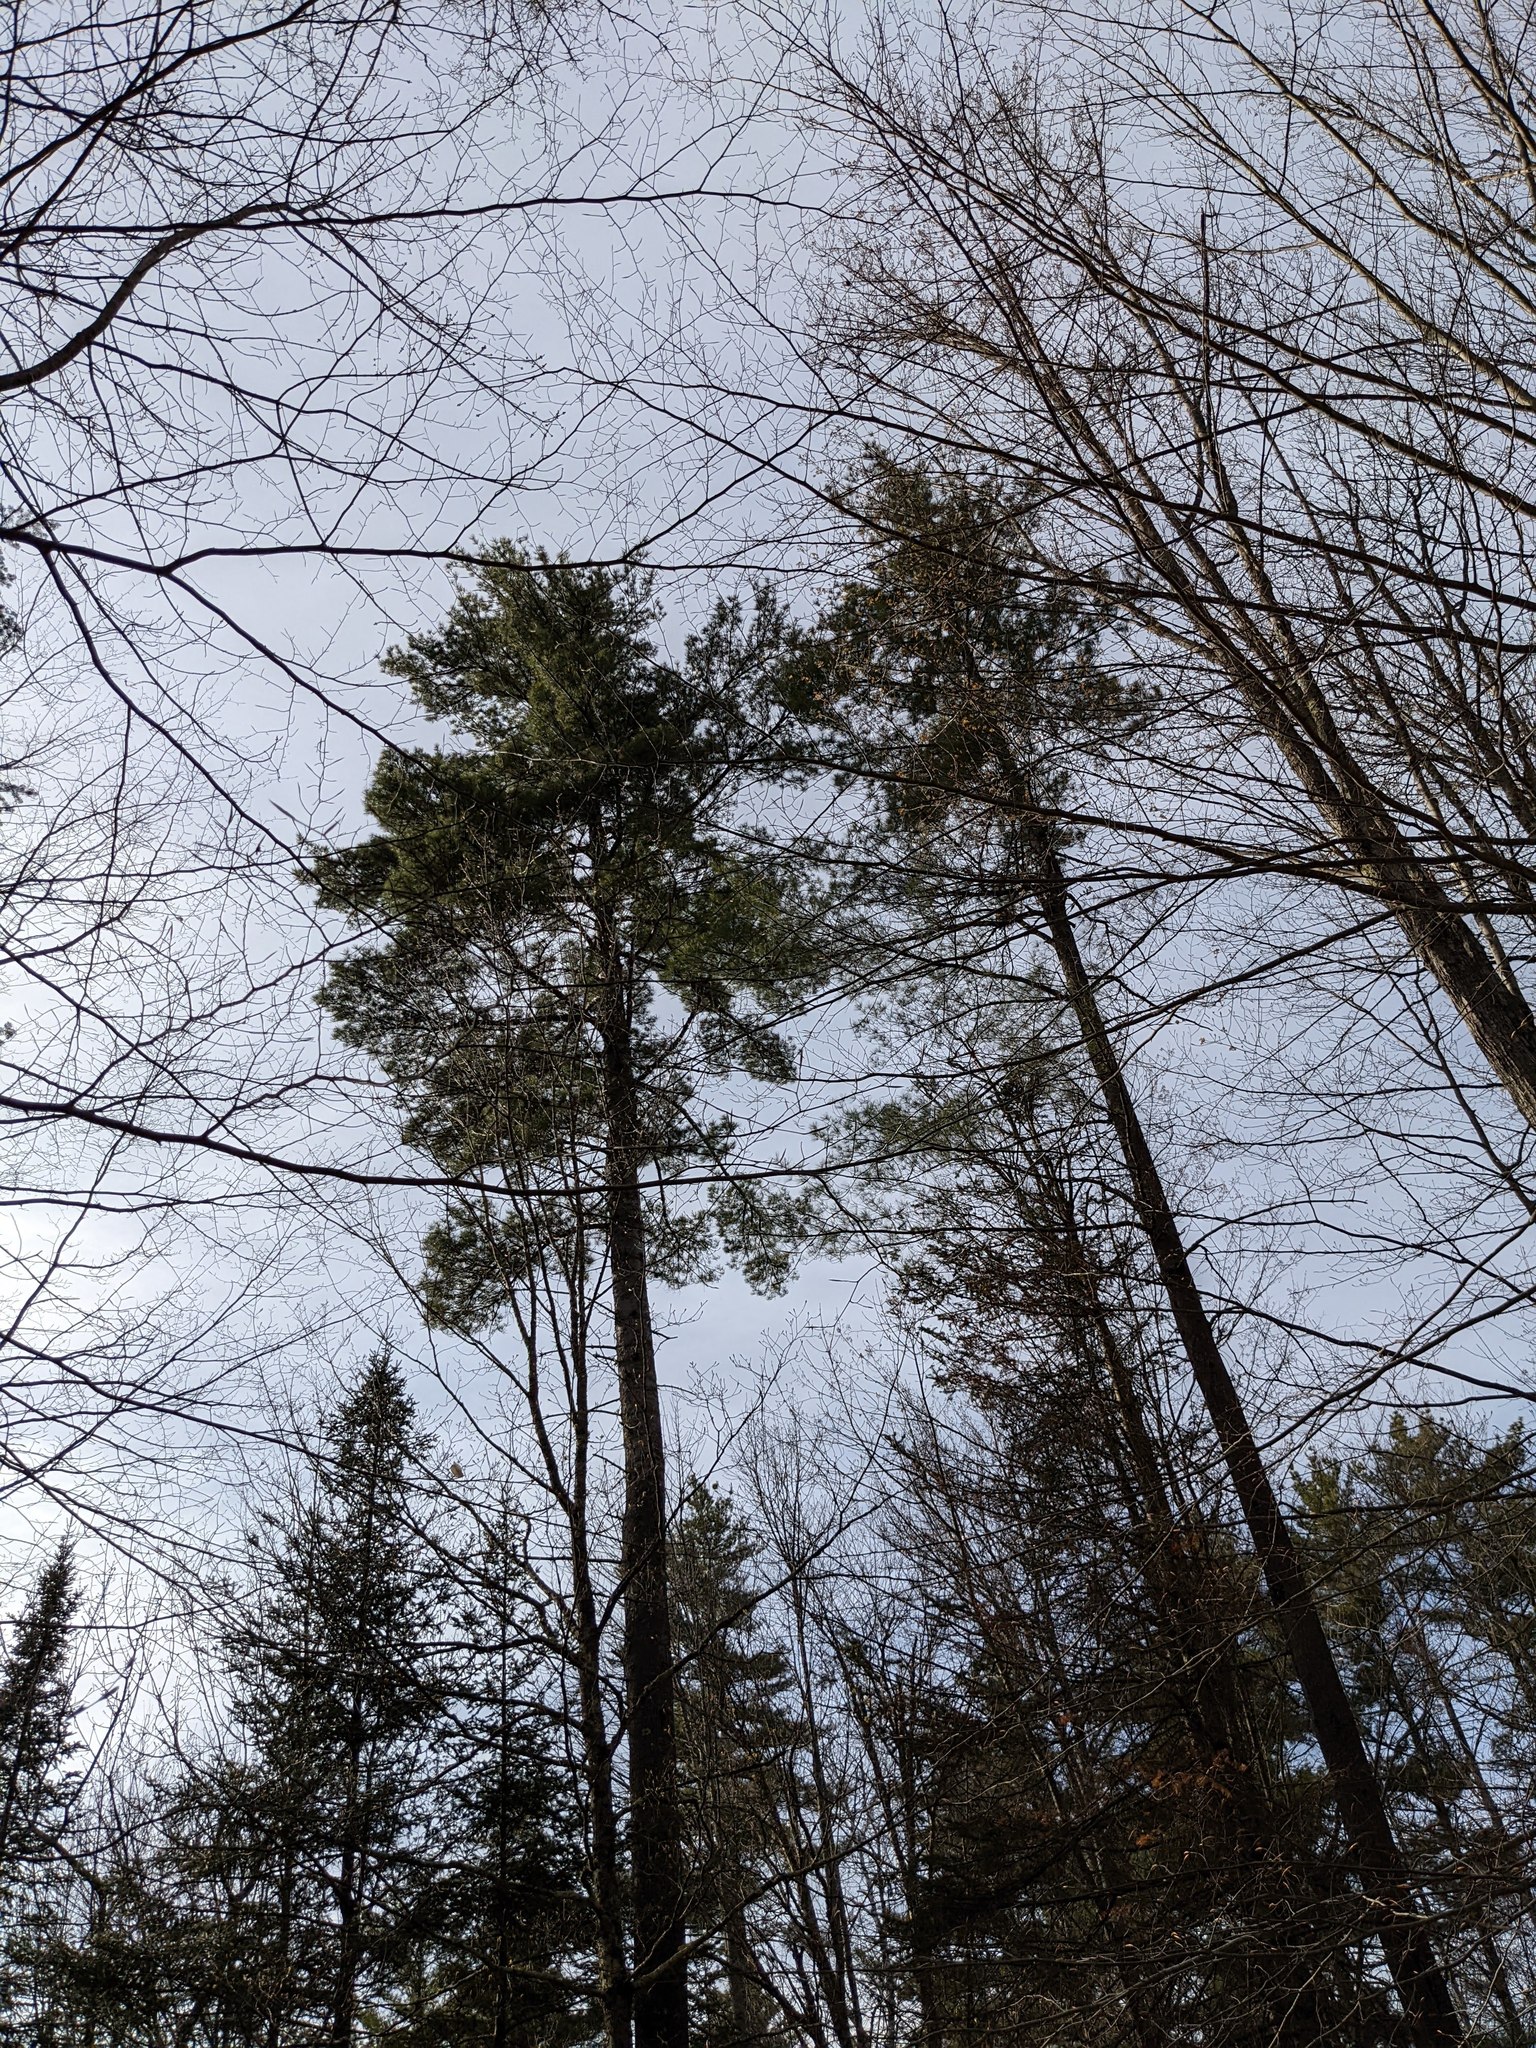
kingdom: Plantae
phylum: Tracheophyta
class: Pinopsida
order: Pinales
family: Pinaceae
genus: Pinus
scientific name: Pinus strobus
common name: Weymouth pine
